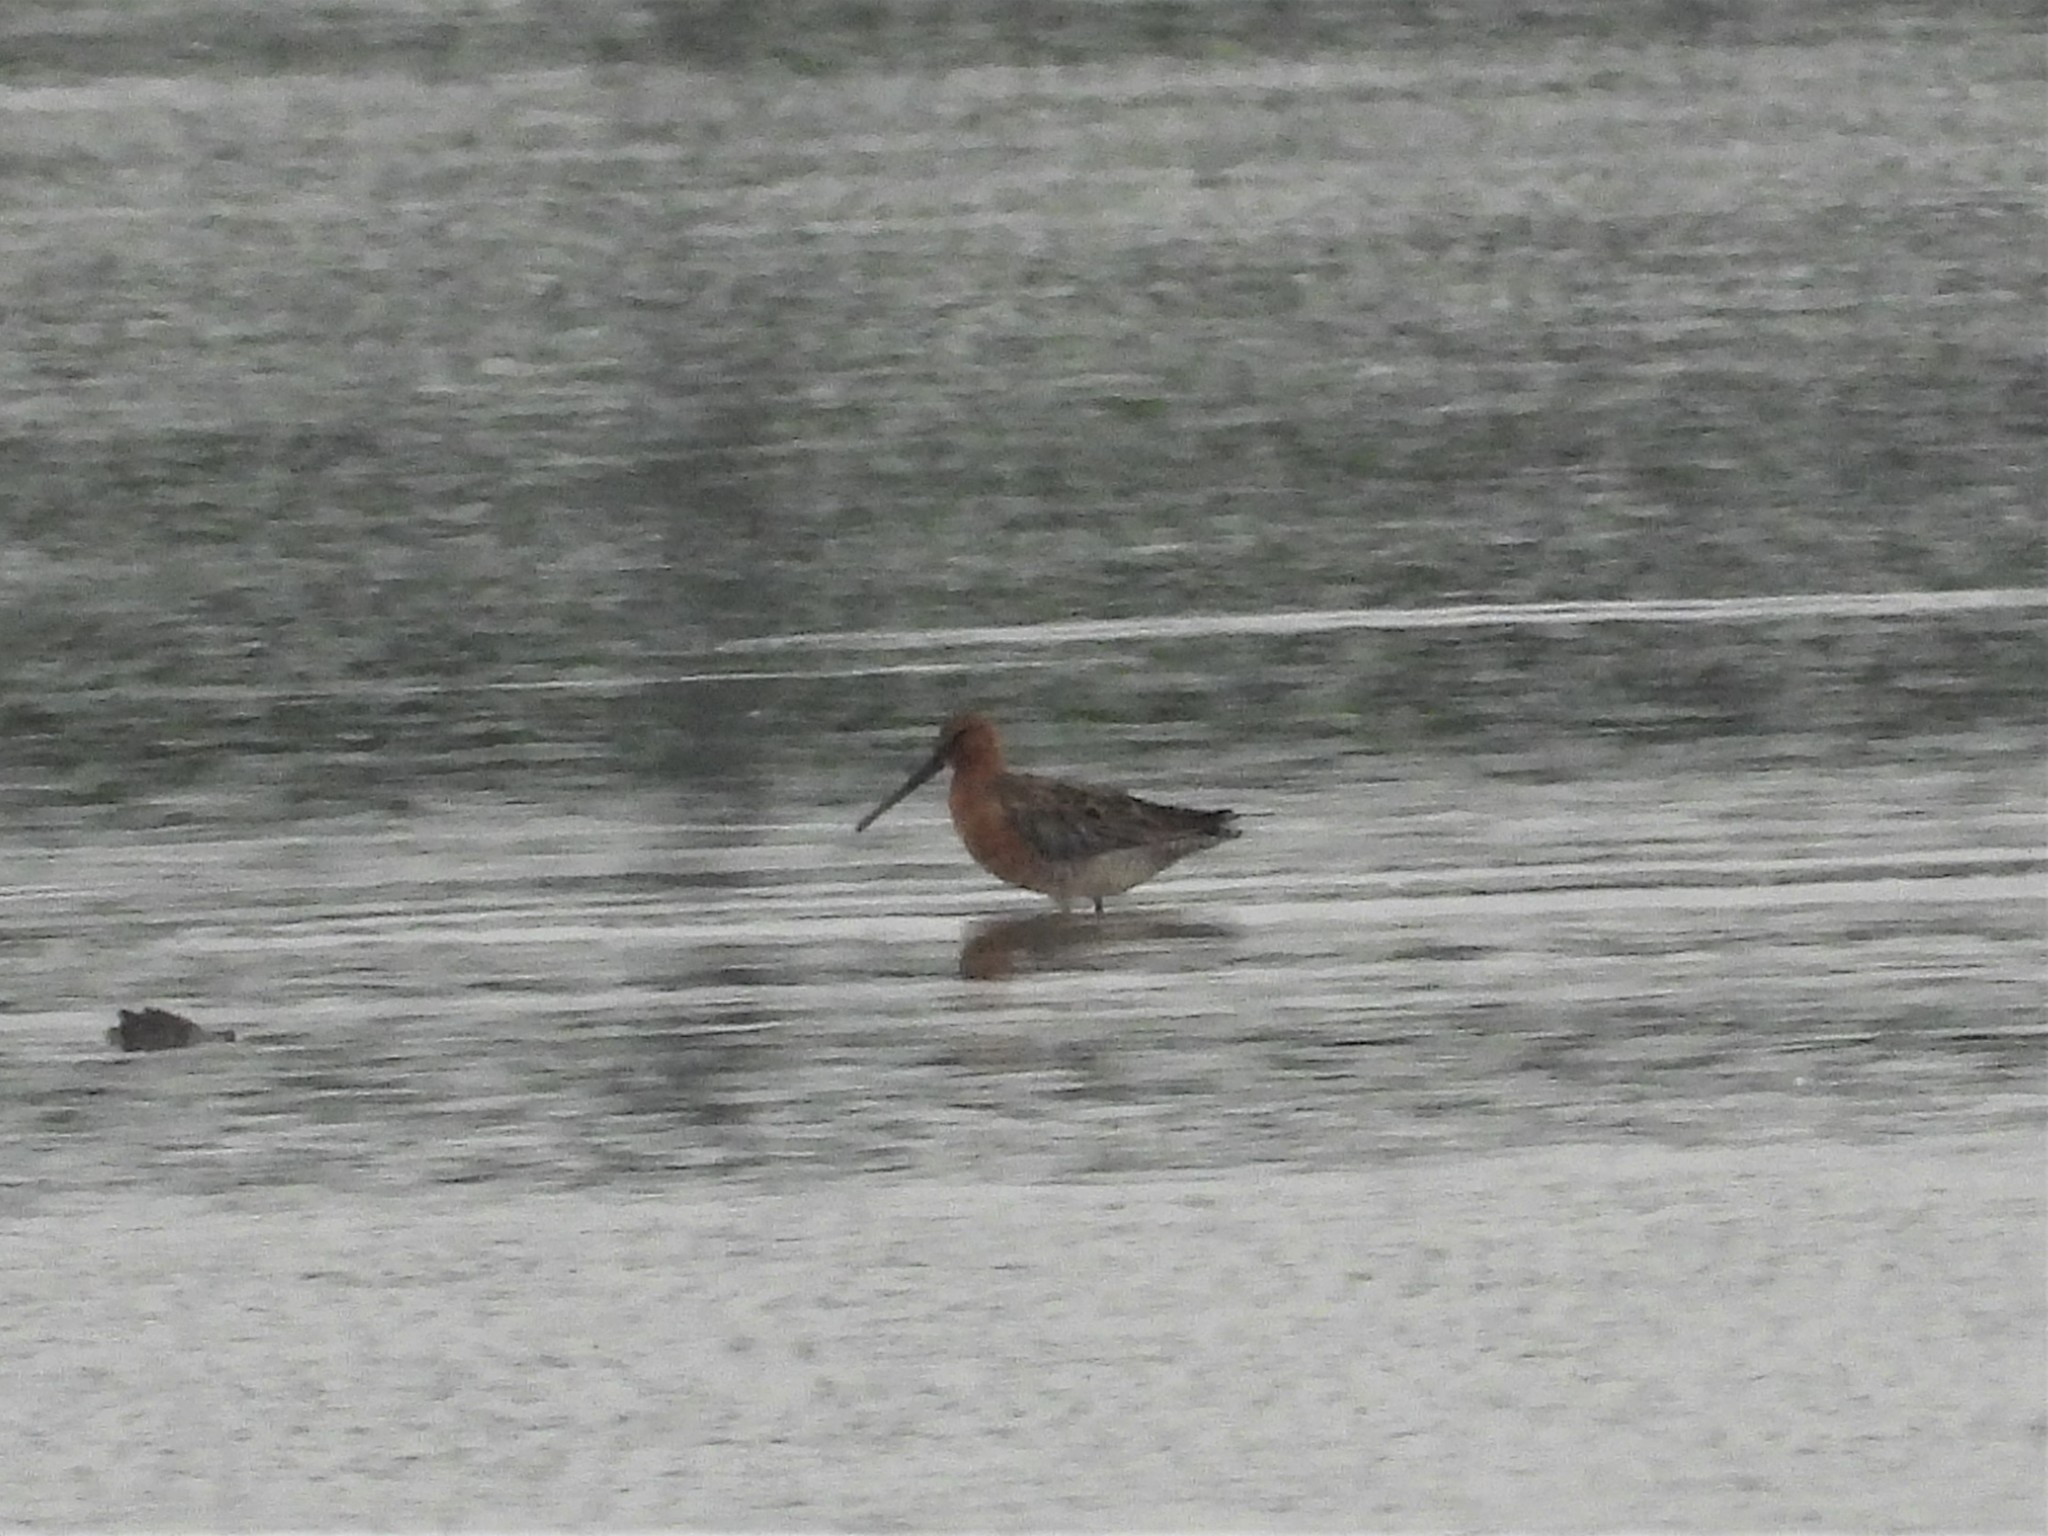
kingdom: Animalia
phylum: Chordata
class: Aves
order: Charadriiformes
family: Scolopacidae
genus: Limnodromus
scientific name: Limnodromus semipalmatus
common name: Asian dowitcher
